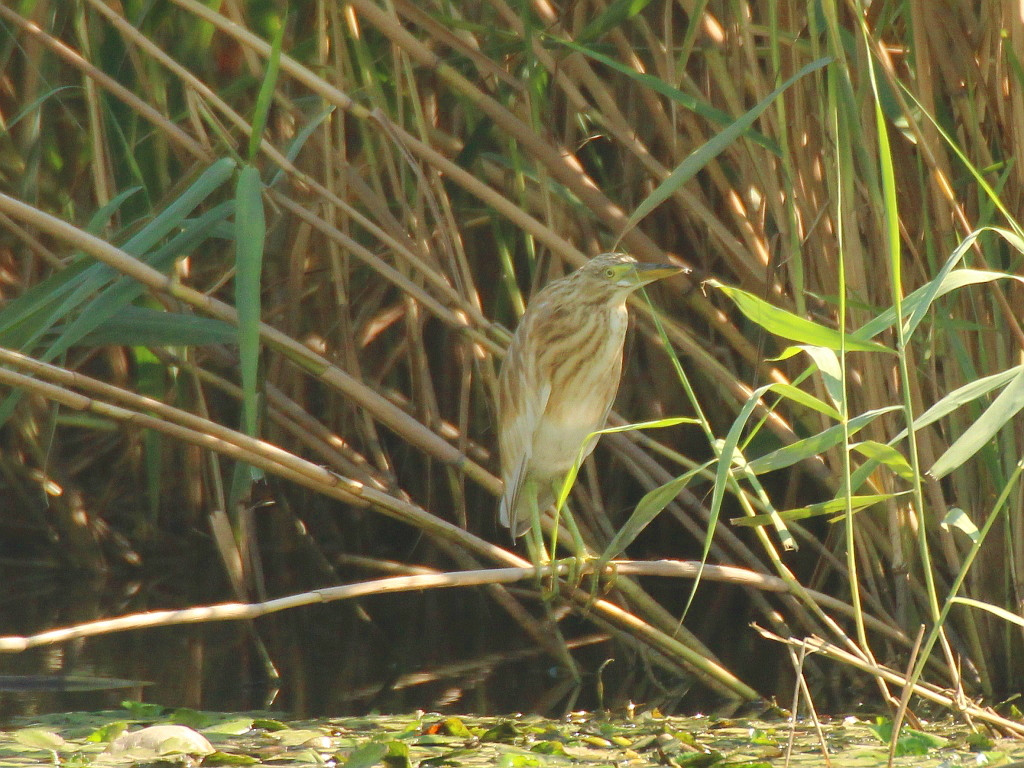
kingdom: Animalia
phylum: Chordata
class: Aves
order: Pelecaniformes
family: Ardeidae
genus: Ardeola
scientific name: Ardeola ralloides
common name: Squacco heron
